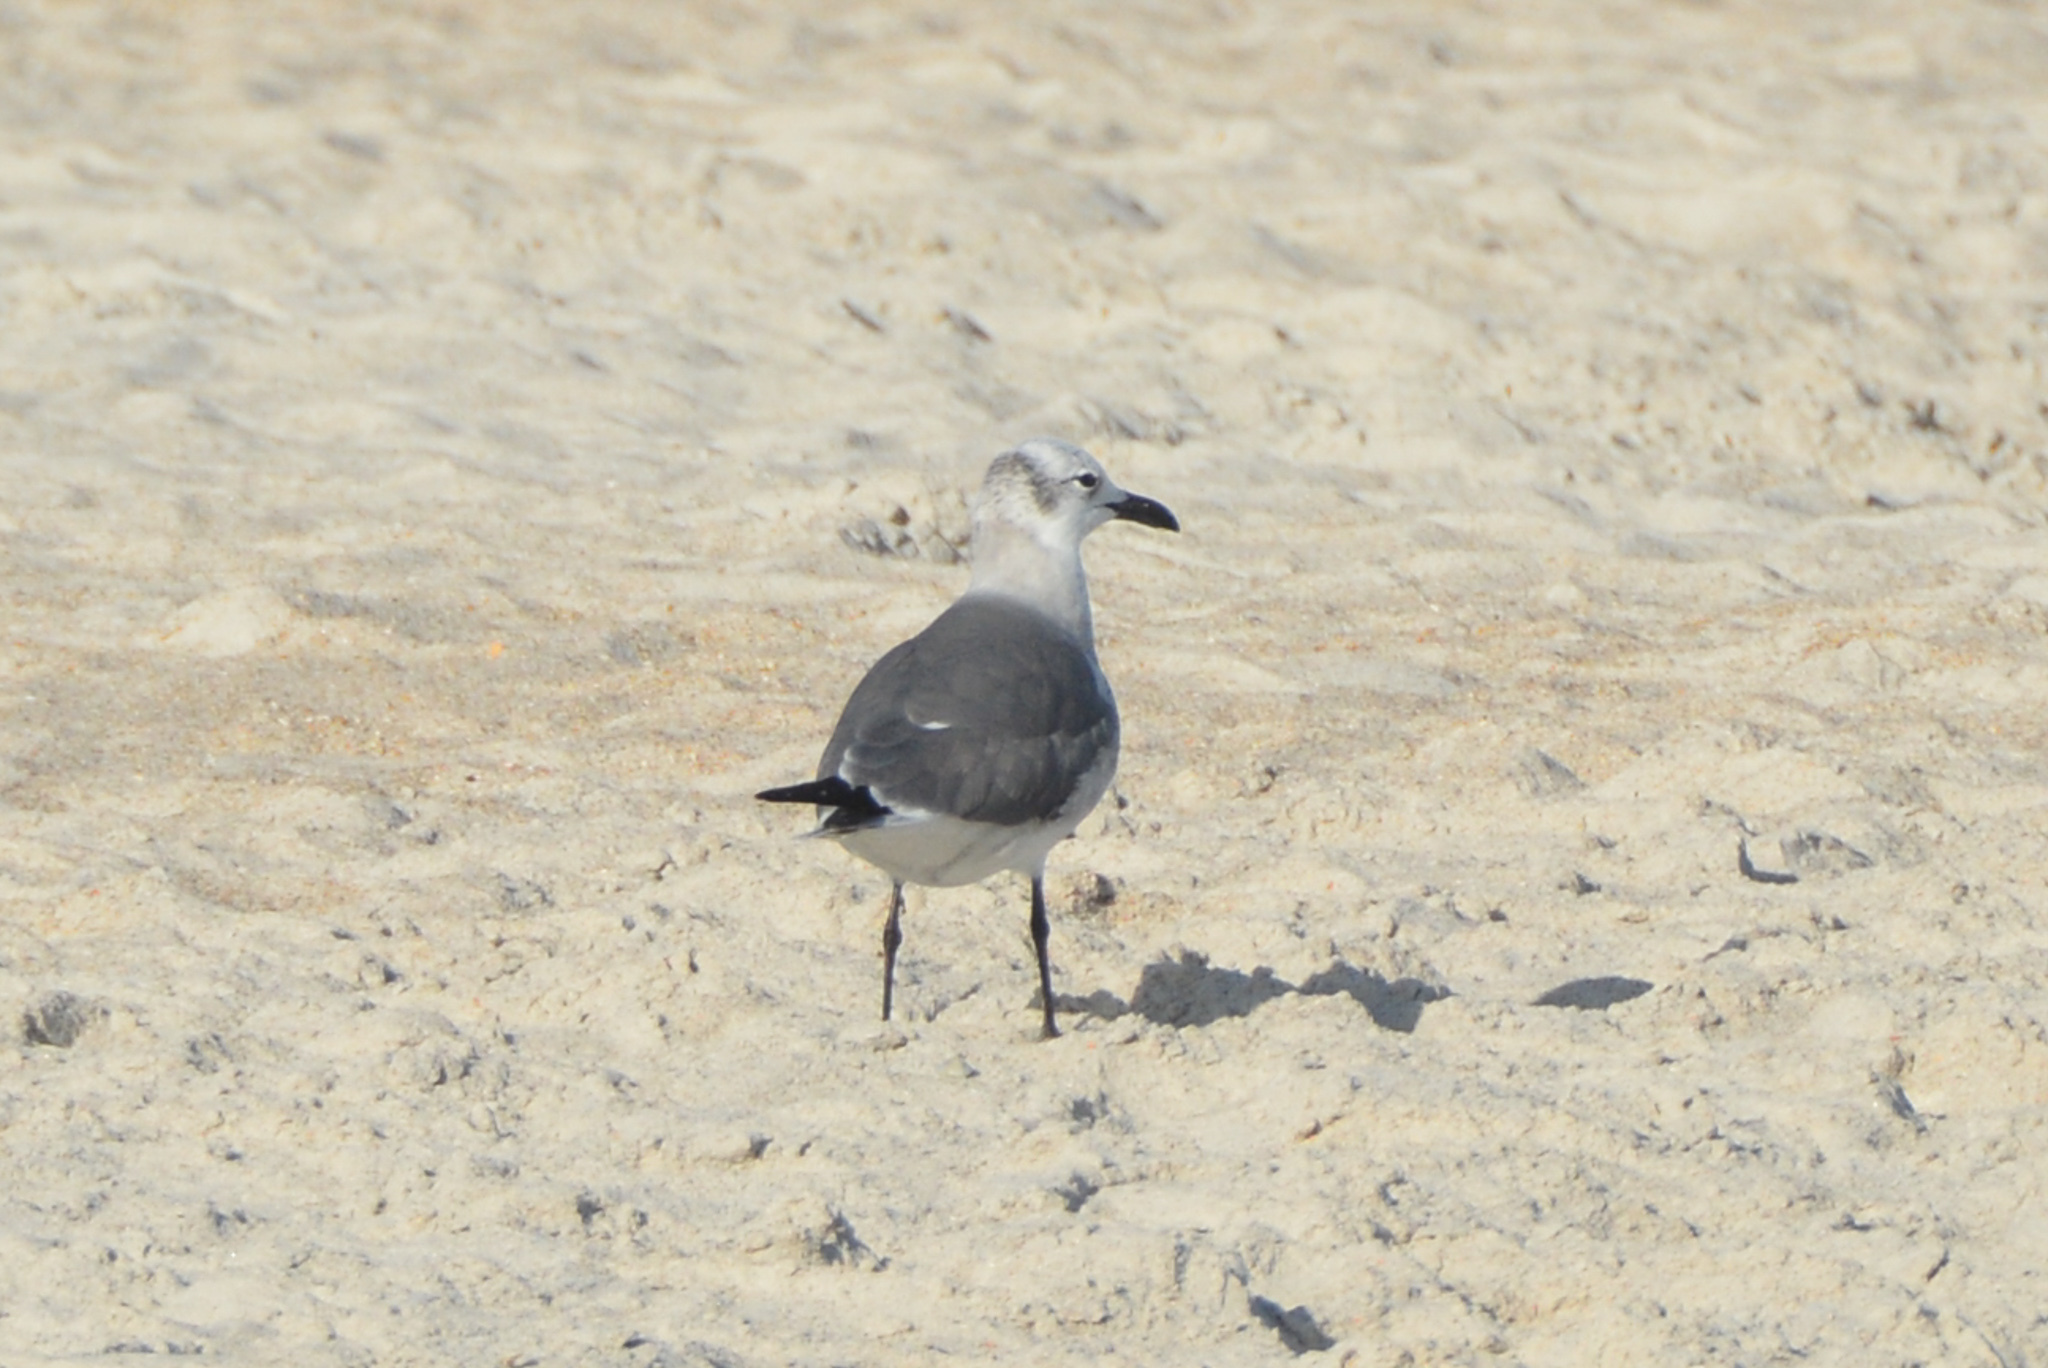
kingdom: Animalia
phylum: Chordata
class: Aves
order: Charadriiformes
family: Laridae
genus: Leucophaeus
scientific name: Leucophaeus atricilla
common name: Laughing gull
